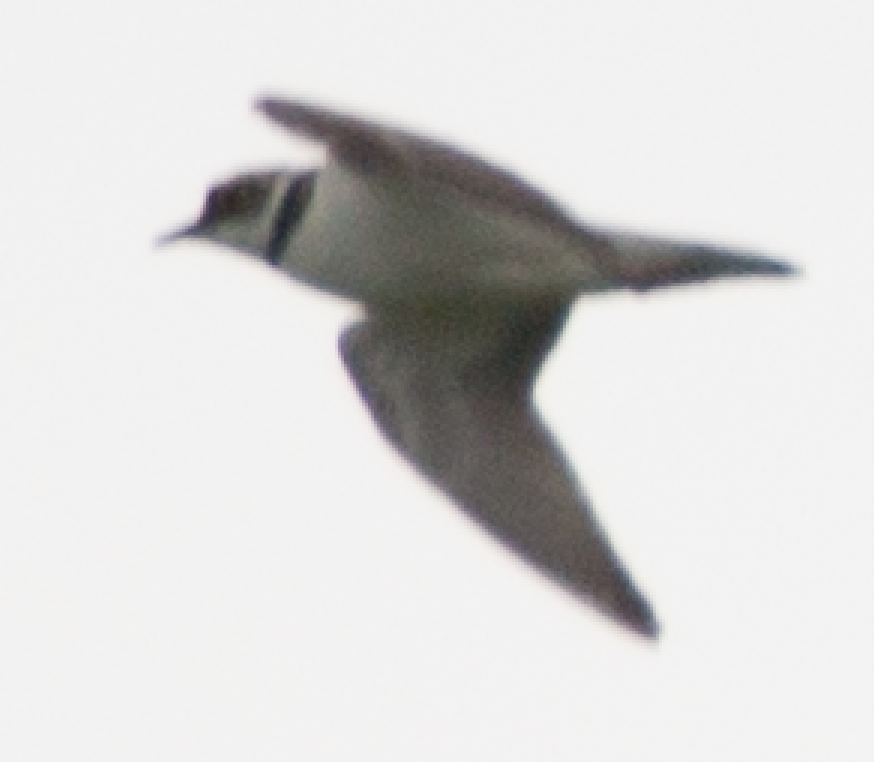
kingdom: Animalia
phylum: Chordata
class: Aves
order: Charadriiformes
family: Charadriidae
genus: Charadrius
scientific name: Charadrius dubius
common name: Little ringed plover
